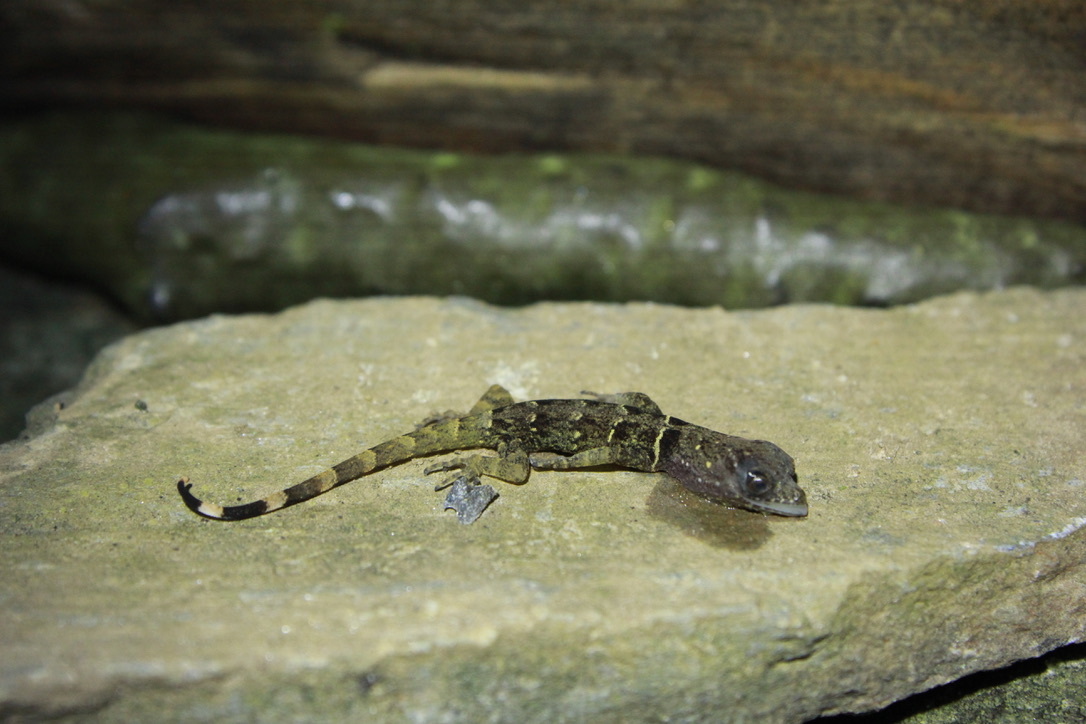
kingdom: Animalia
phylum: Chordata
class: Squamata
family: Sphaerodactylidae
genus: Gonatodes
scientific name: Gonatodes ceciliae
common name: Brilliant south american gecko
